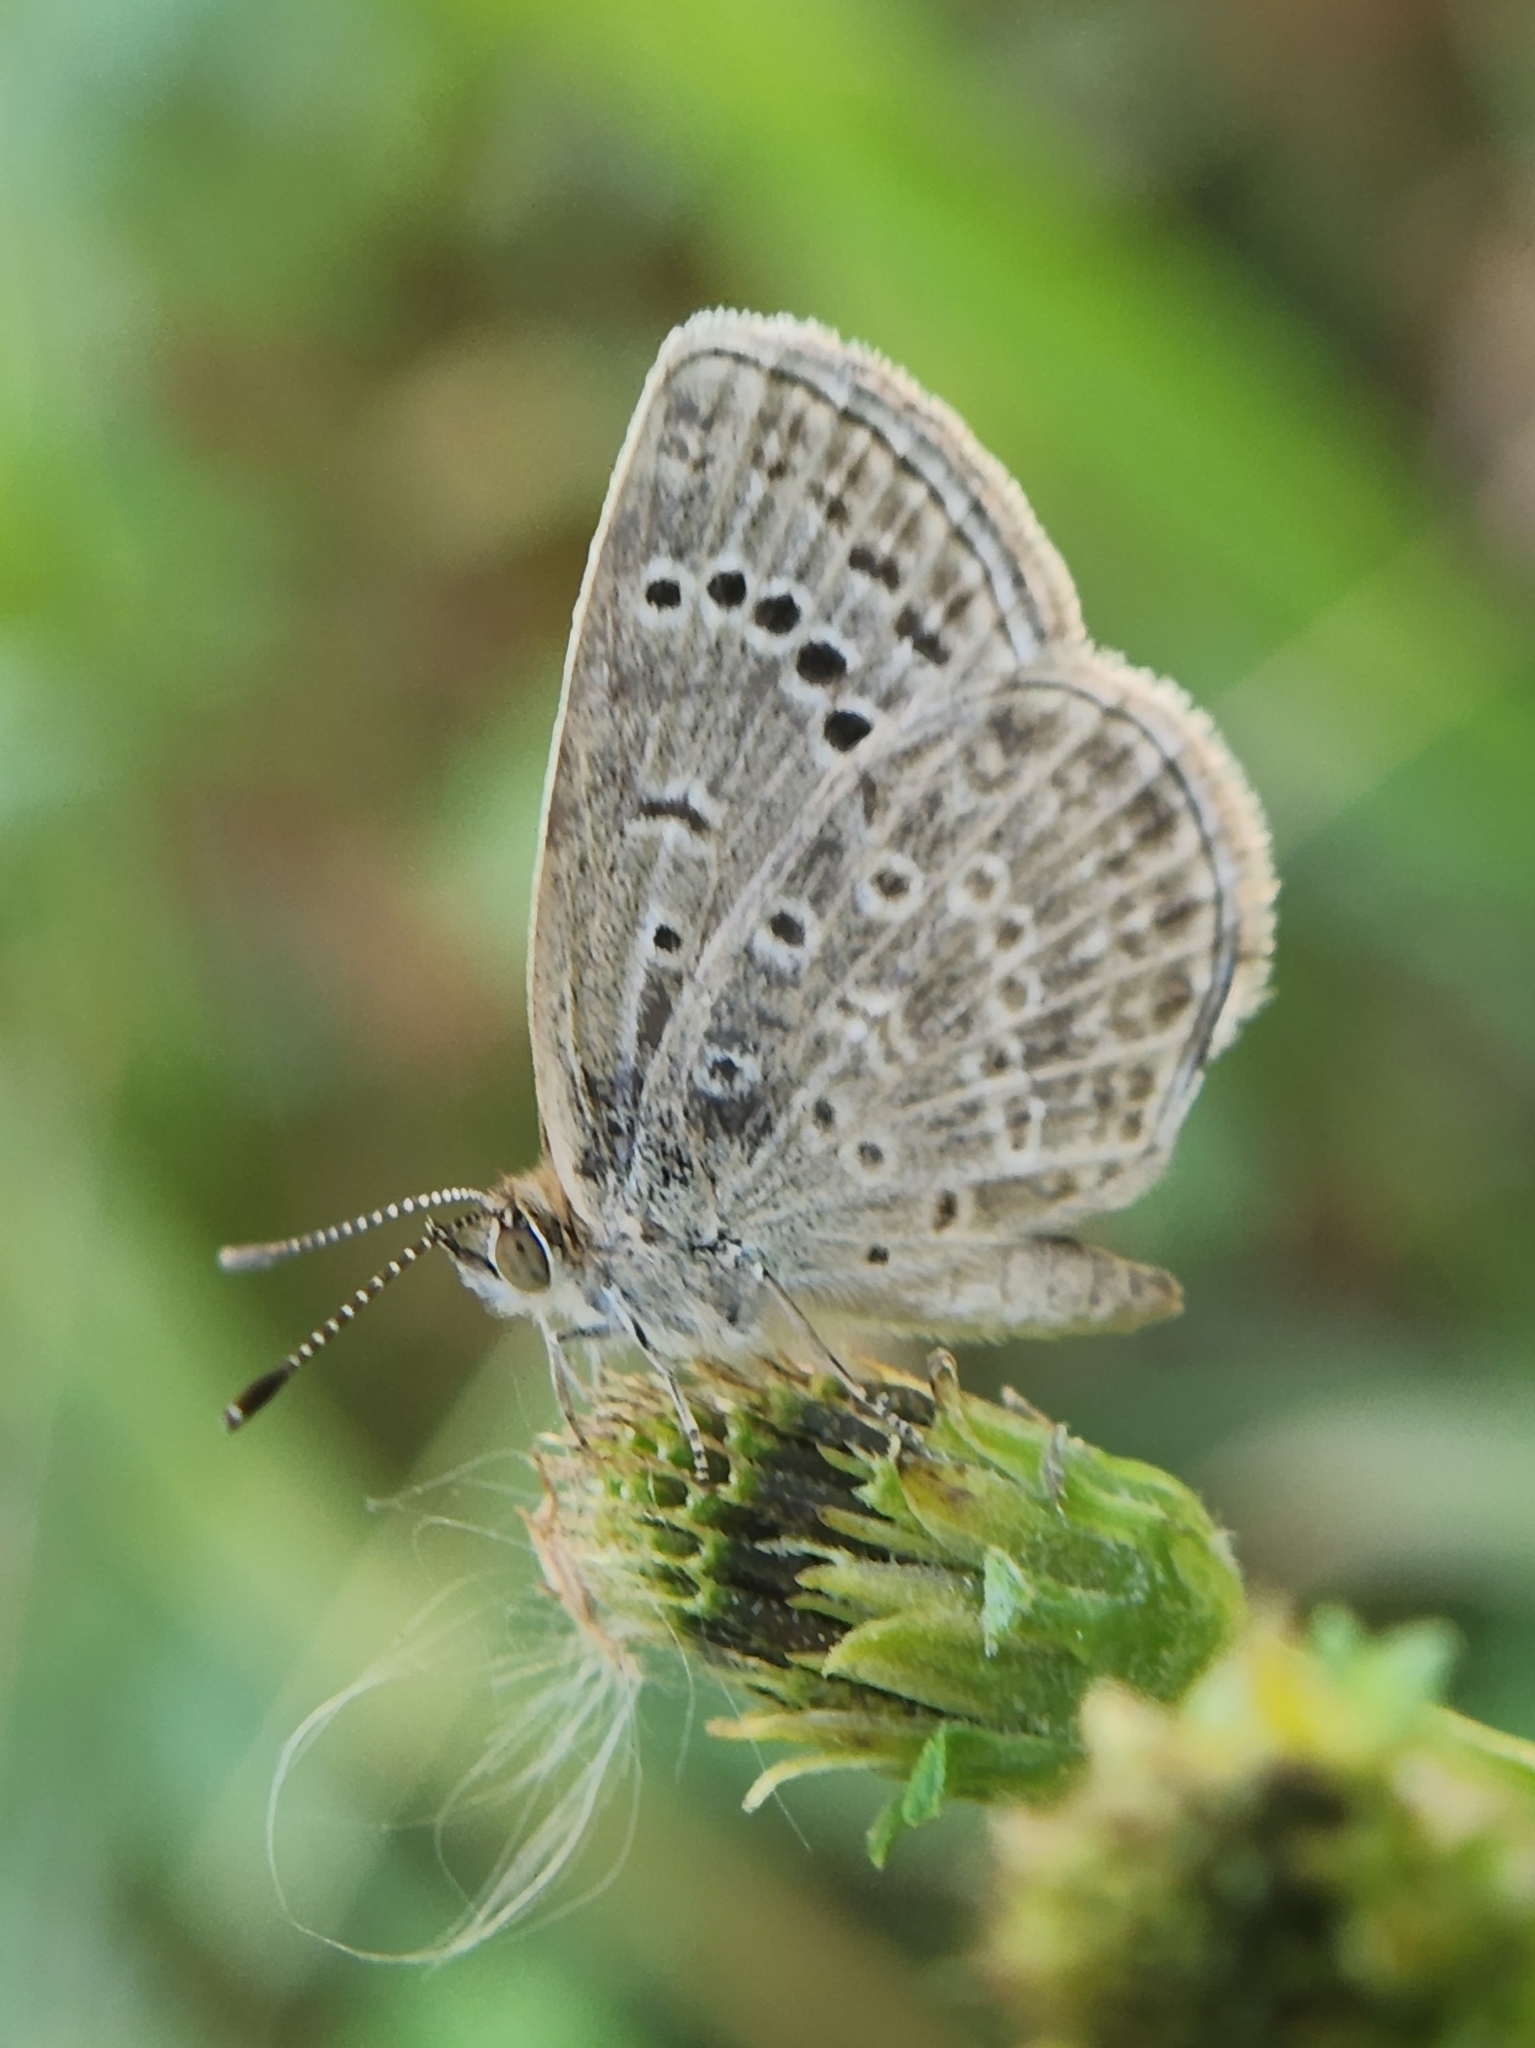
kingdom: Animalia
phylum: Arthropoda
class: Insecta
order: Lepidoptera
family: Lycaenidae
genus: Pseudozizeeria
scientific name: Pseudozizeeria maha
